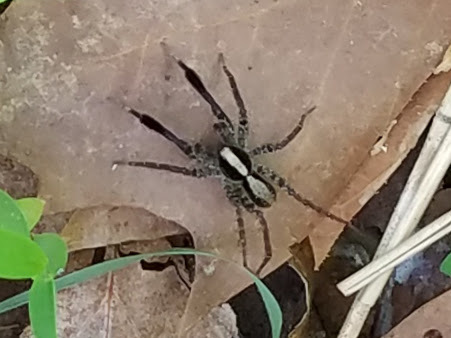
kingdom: Animalia
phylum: Arthropoda
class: Arachnida
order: Araneae
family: Lycosidae
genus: Schizocosa
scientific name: Schizocosa
